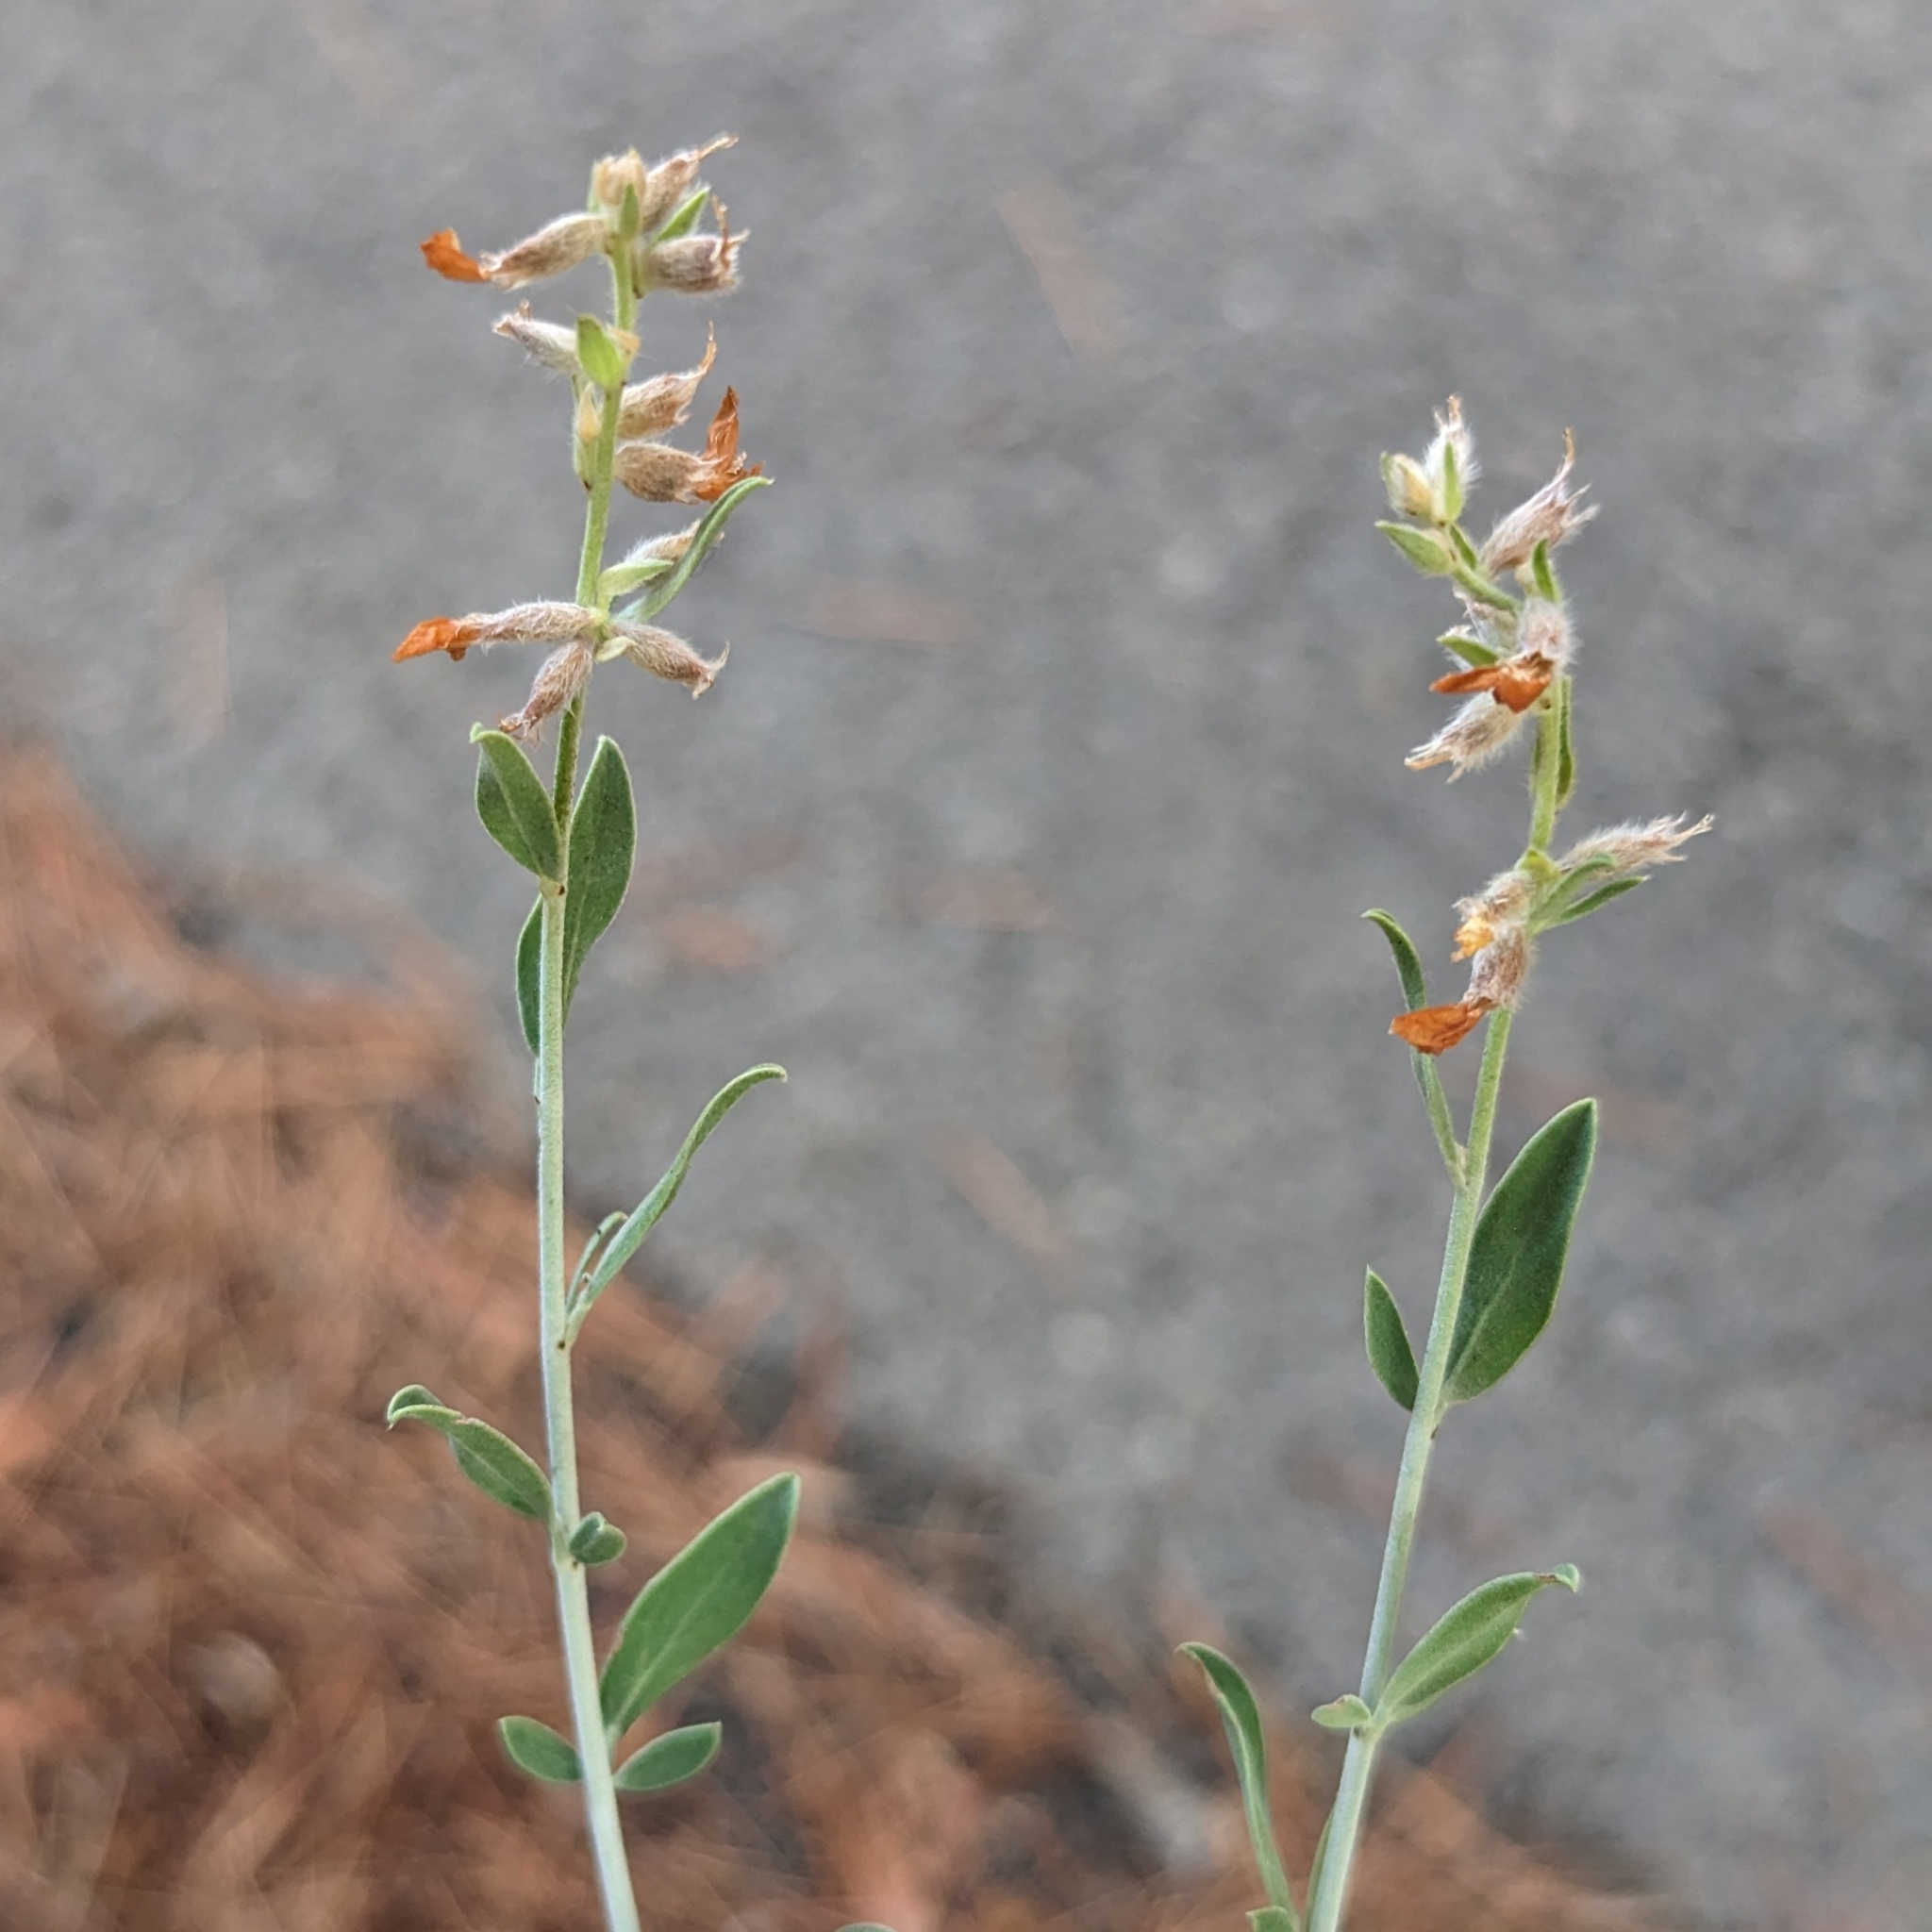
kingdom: Plantae
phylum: Tracheophyta
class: Magnoliopsida
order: Fabales
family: Fabaceae
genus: Anthyllis
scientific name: Anthyllis cytisoides
